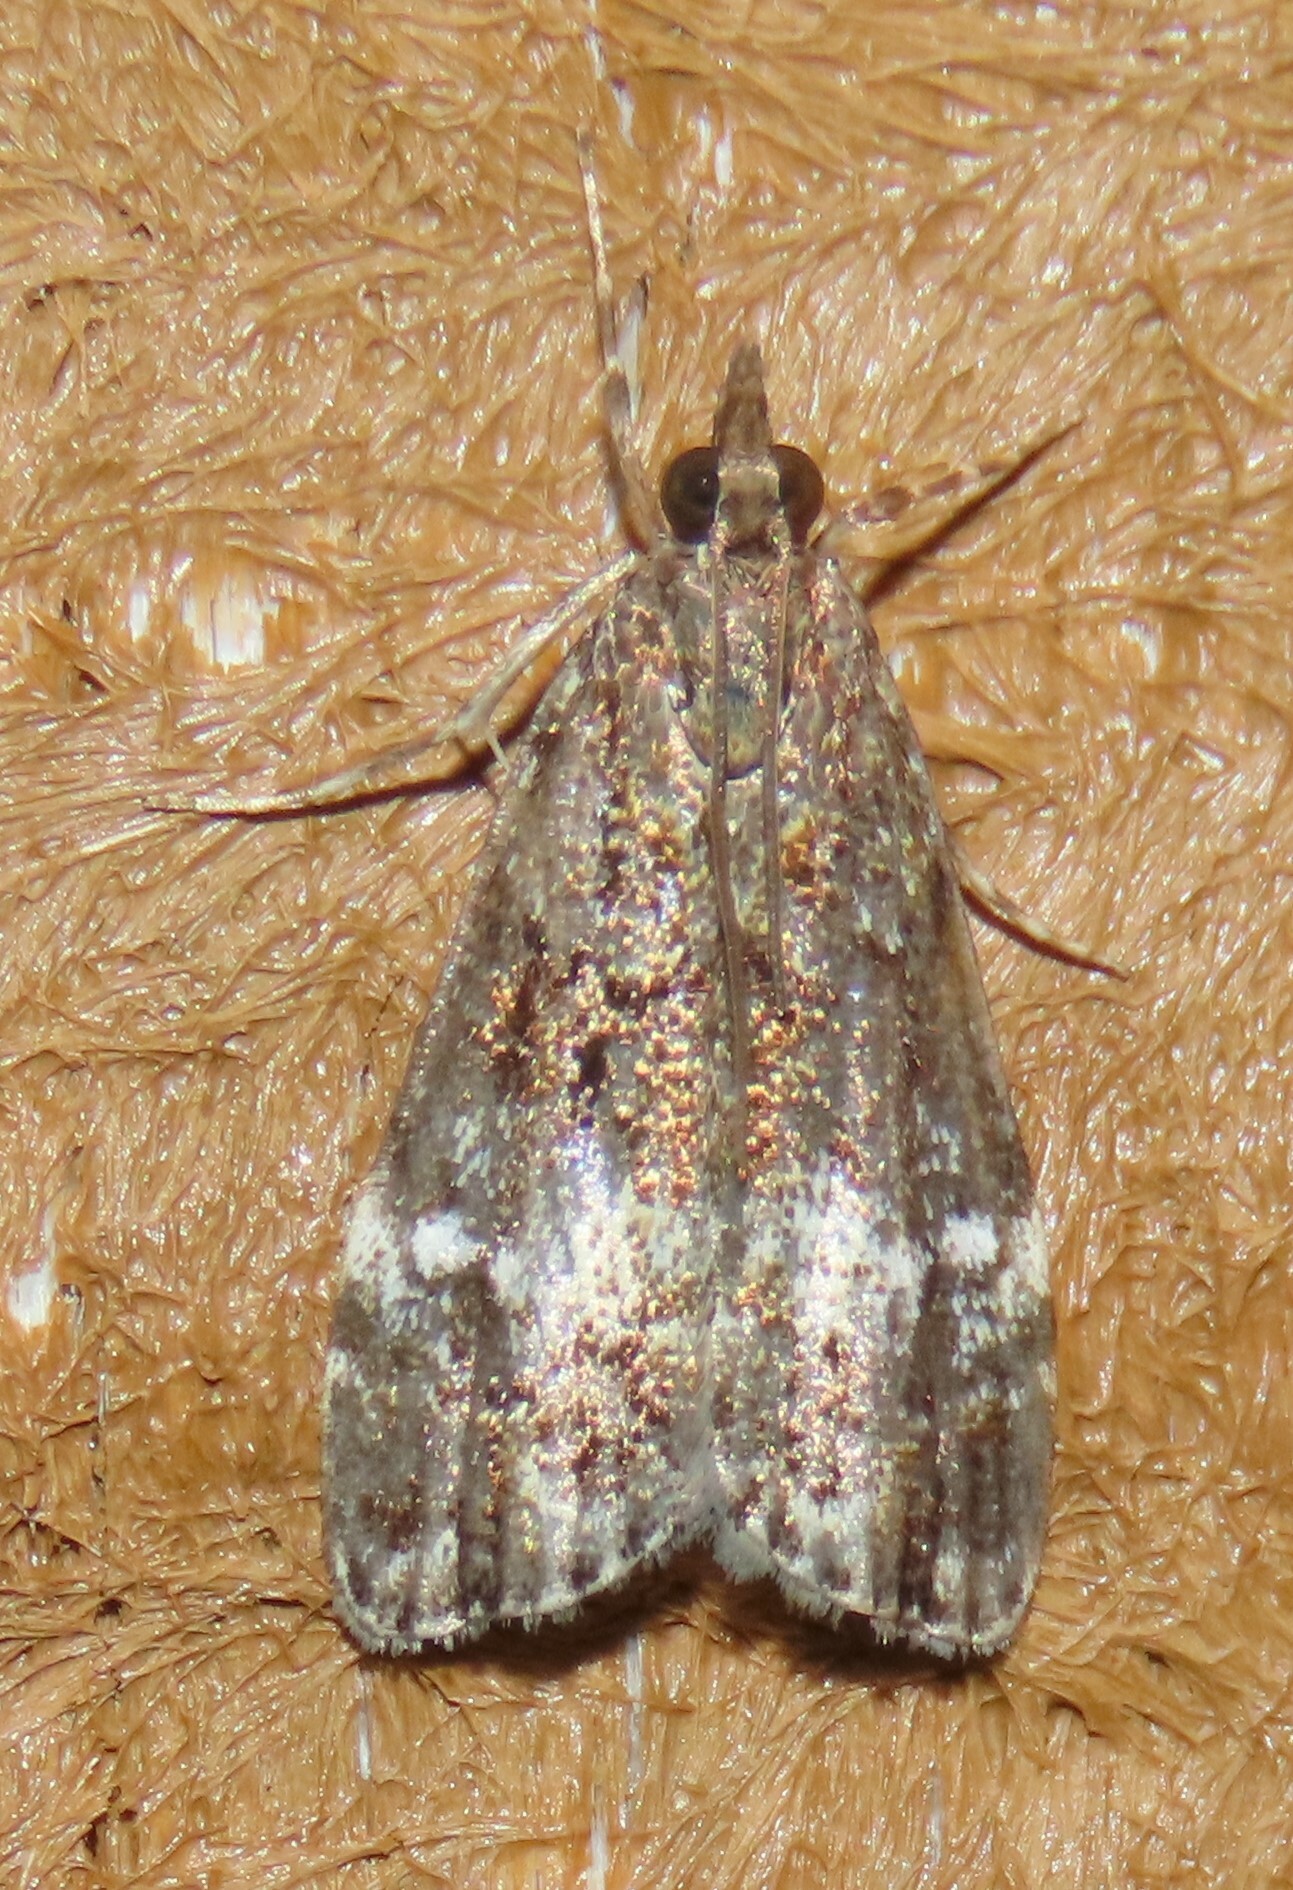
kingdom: Animalia
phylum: Arthropoda
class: Insecta
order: Lepidoptera
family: Crambidae
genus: Eudonia
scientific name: Eudonia dinodes
